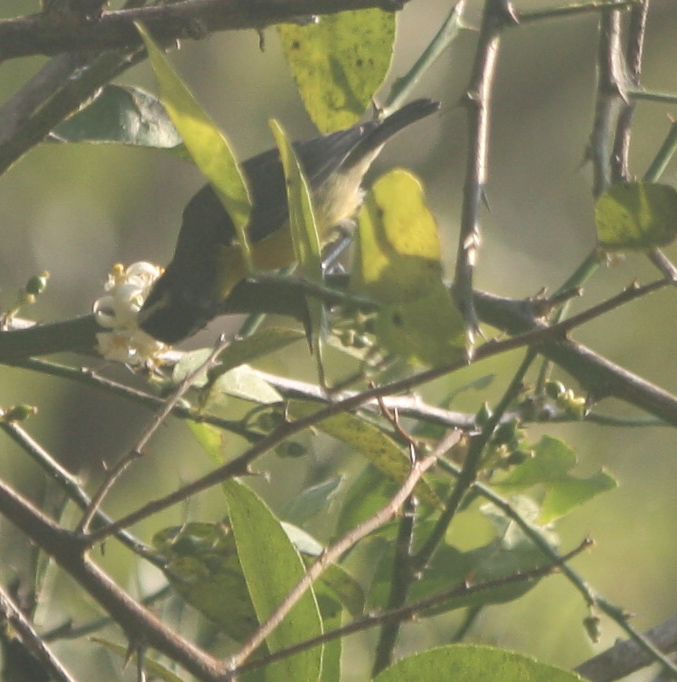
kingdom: Animalia
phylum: Chordata
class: Aves
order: Passeriformes
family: Thraupidae
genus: Coereba
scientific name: Coereba flaveola
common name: Bananaquit
